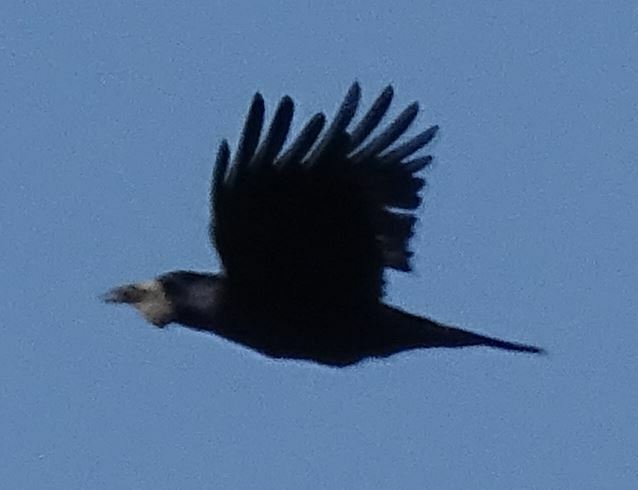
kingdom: Animalia
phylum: Chordata
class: Aves
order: Passeriformes
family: Corvidae
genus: Corvus
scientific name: Corvus frugilegus
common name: Rook
